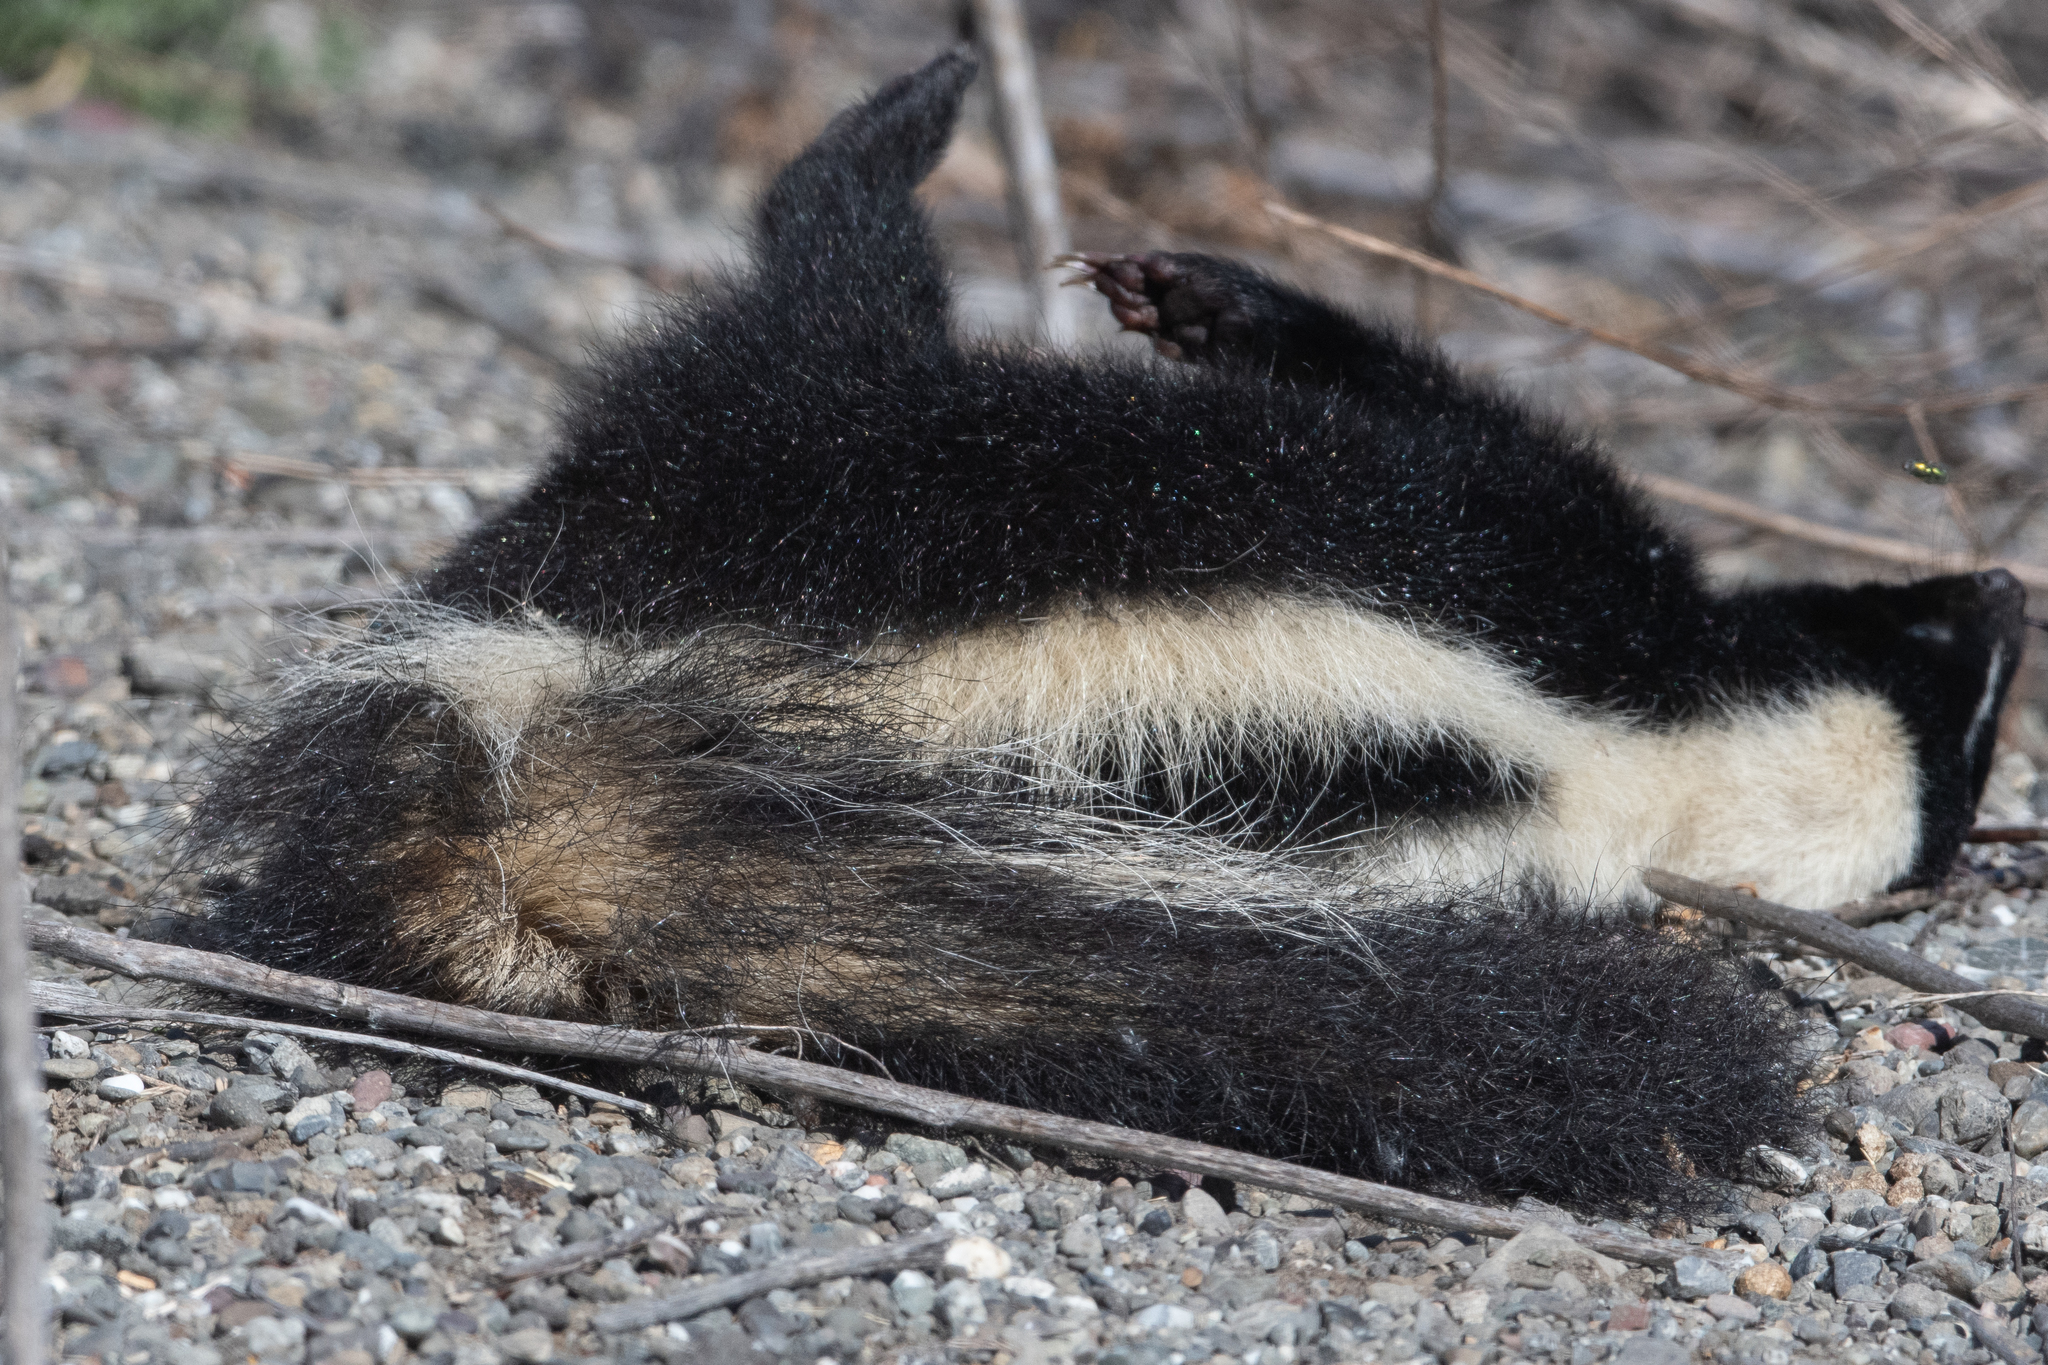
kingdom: Animalia
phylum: Chordata
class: Mammalia
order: Carnivora
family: Mephitidae
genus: Mephitis
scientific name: Mephitis mephitis
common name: Striped skunk
